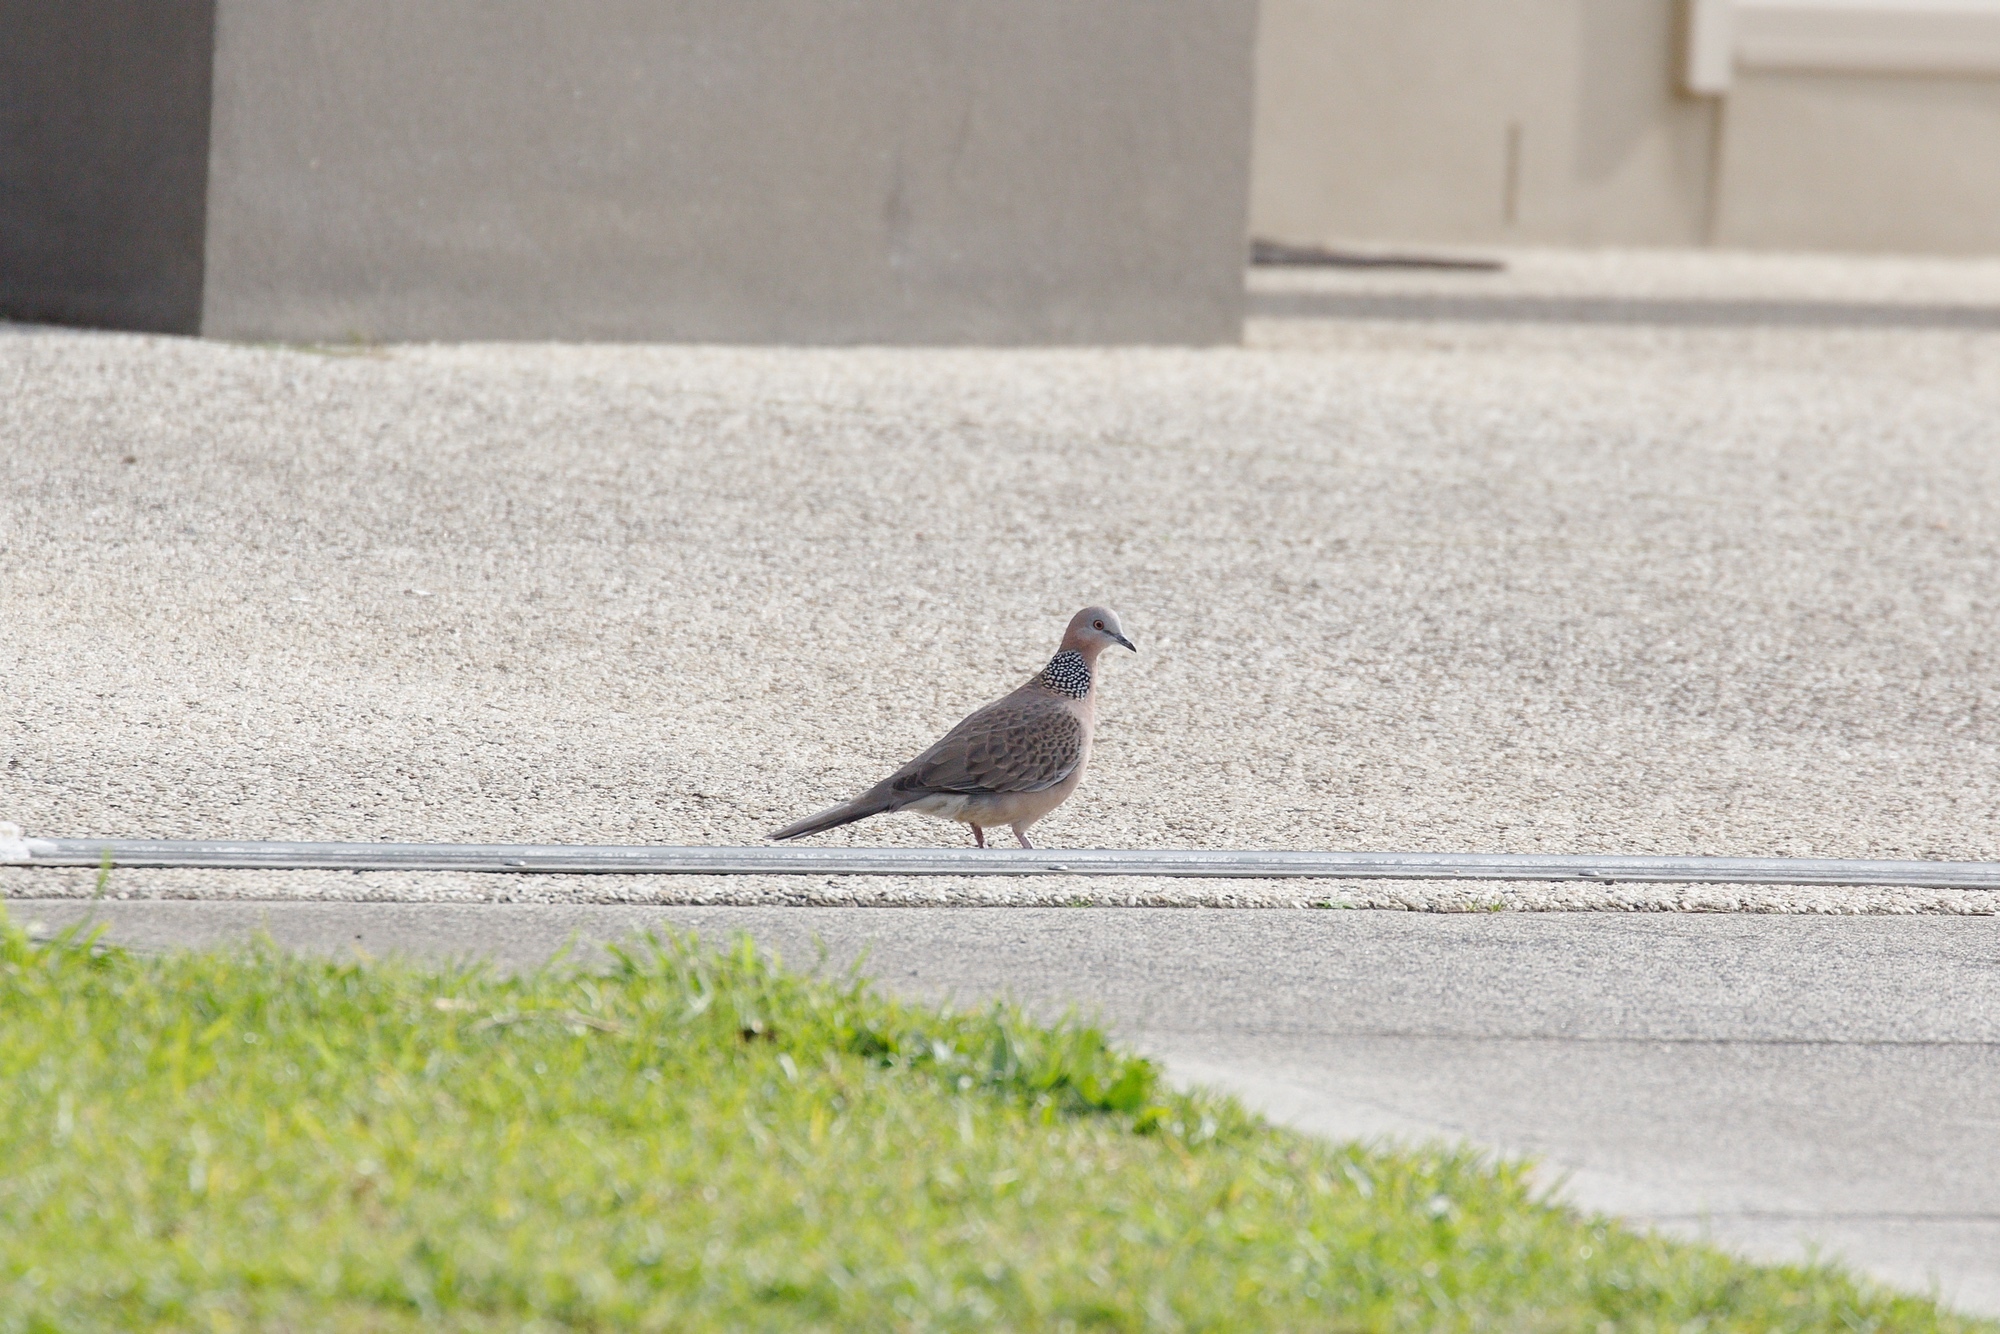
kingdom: Animalia
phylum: Chordata
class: Aves
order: Columbiformes
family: Columbidae
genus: Spilopelia
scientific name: Spilopelia chinensis
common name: Spotted dove
